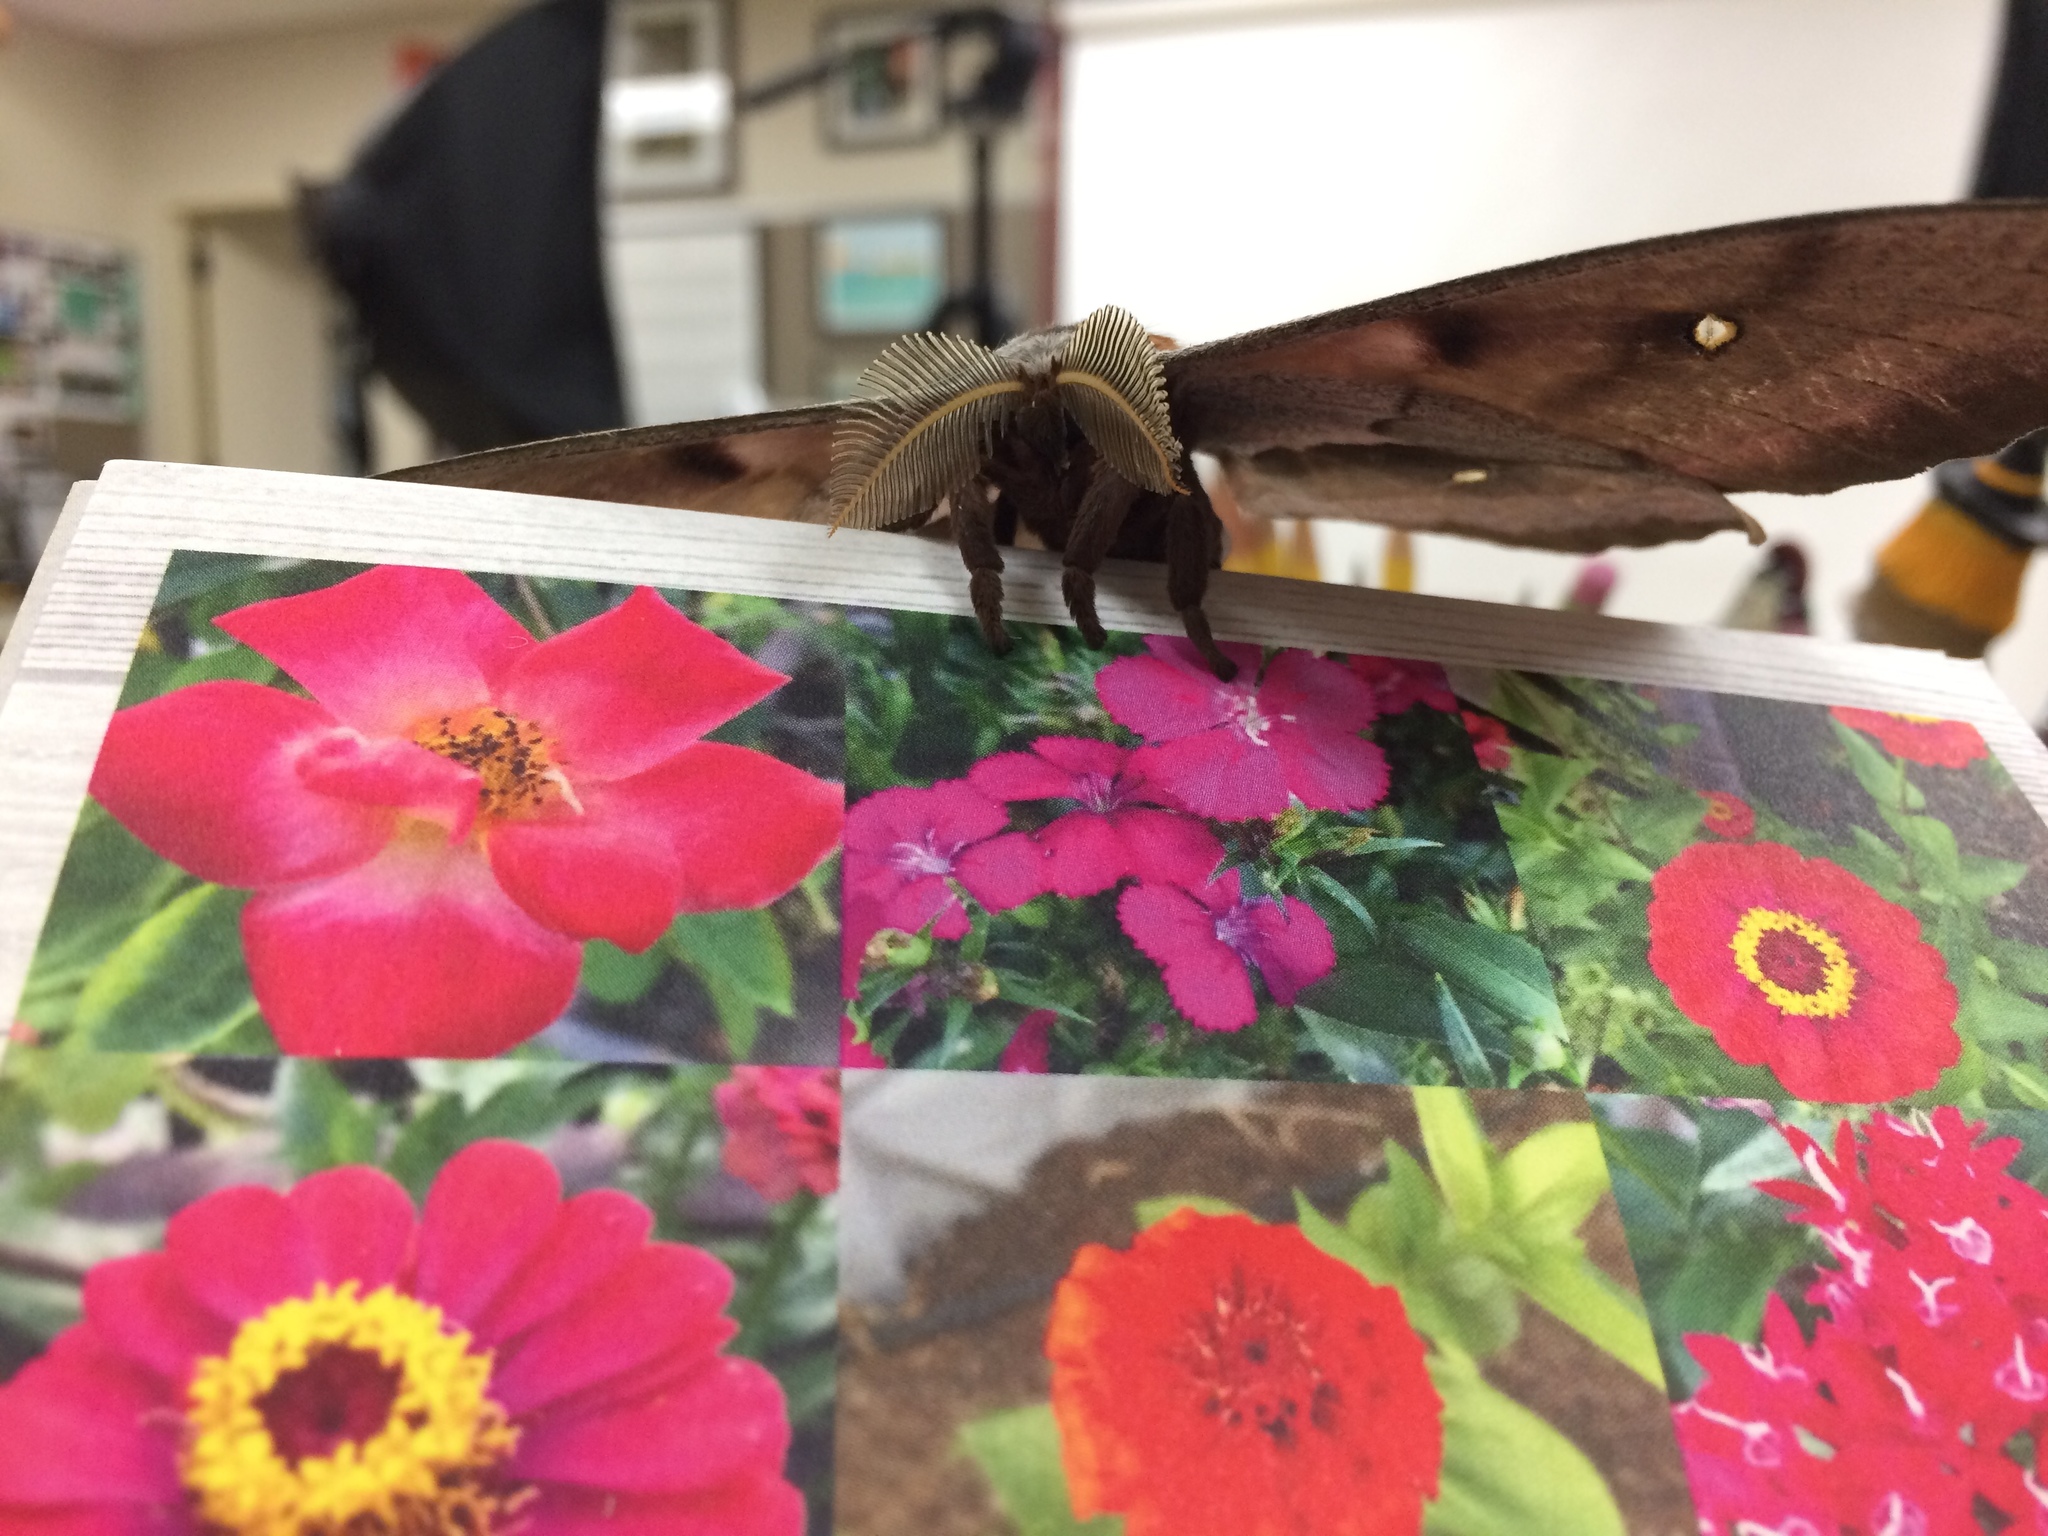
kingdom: Animalia
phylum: Arthropoda
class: Insecta
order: Lepidoptera
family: Saturniidae
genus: Antheraea
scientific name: Antheraea polyphemus
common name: Polyphemus moth
